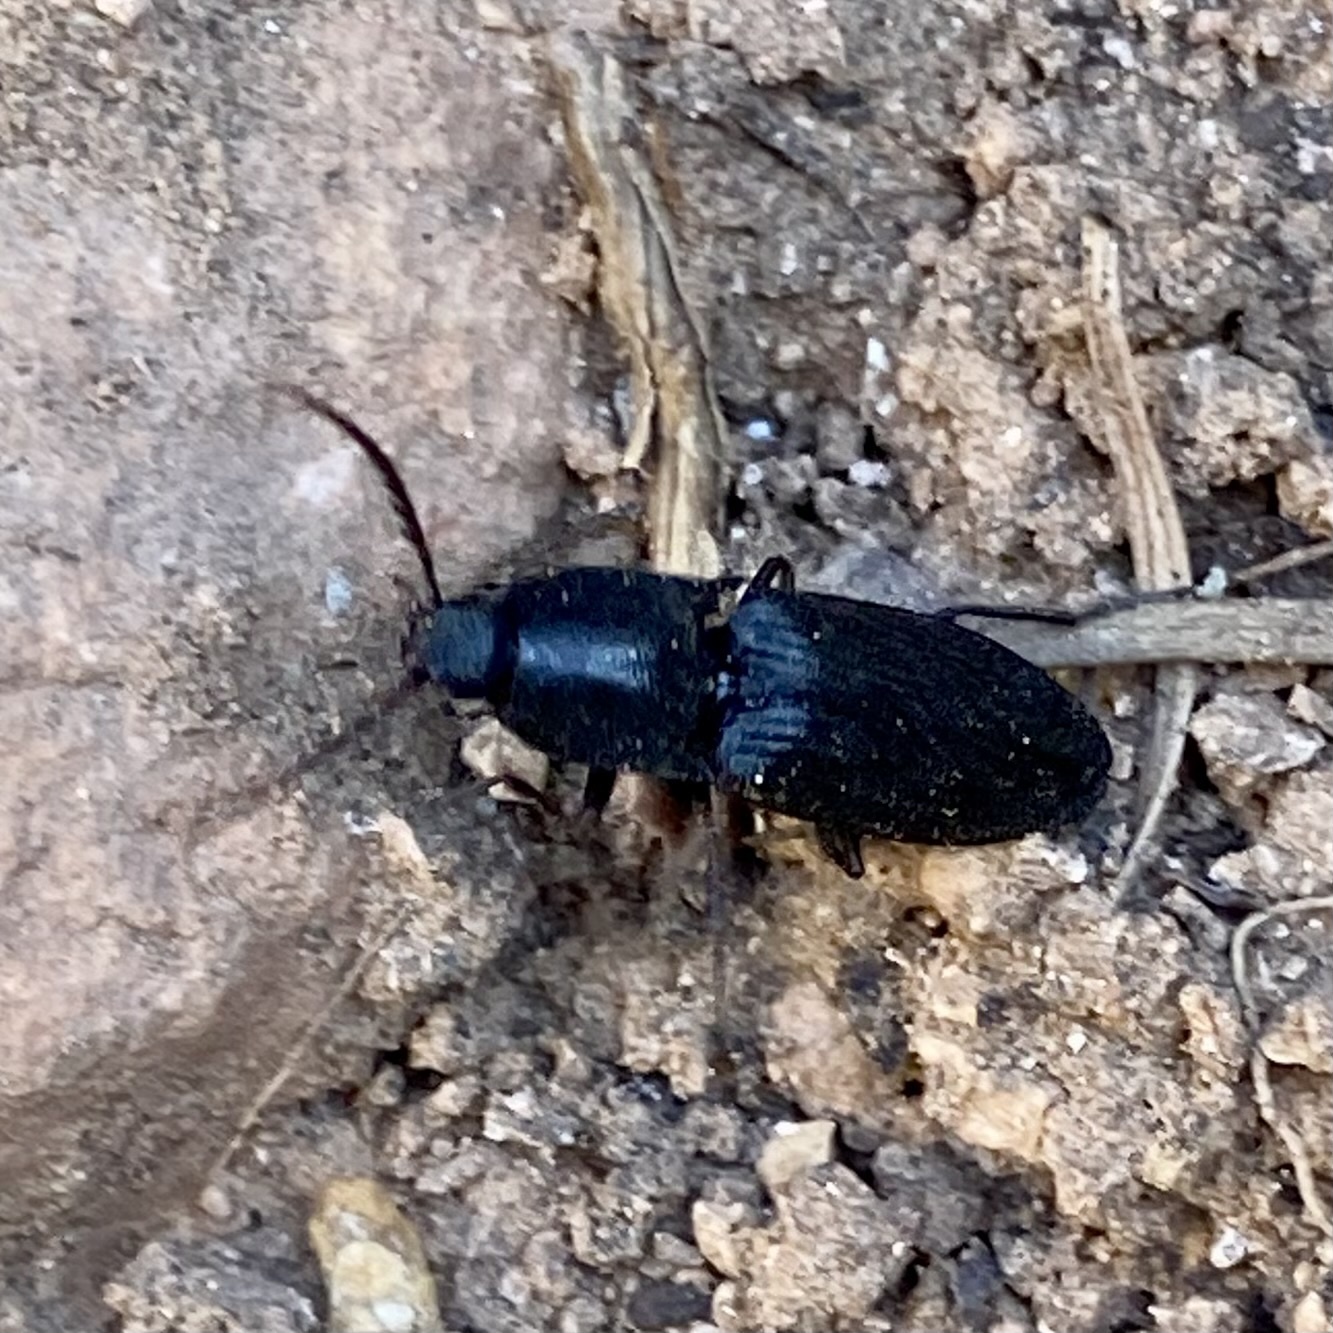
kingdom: Animalia
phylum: Arthropoda
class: Insecta
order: Coleoptera
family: Elateridae
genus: Neopristilophus
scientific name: Neopristilophus
